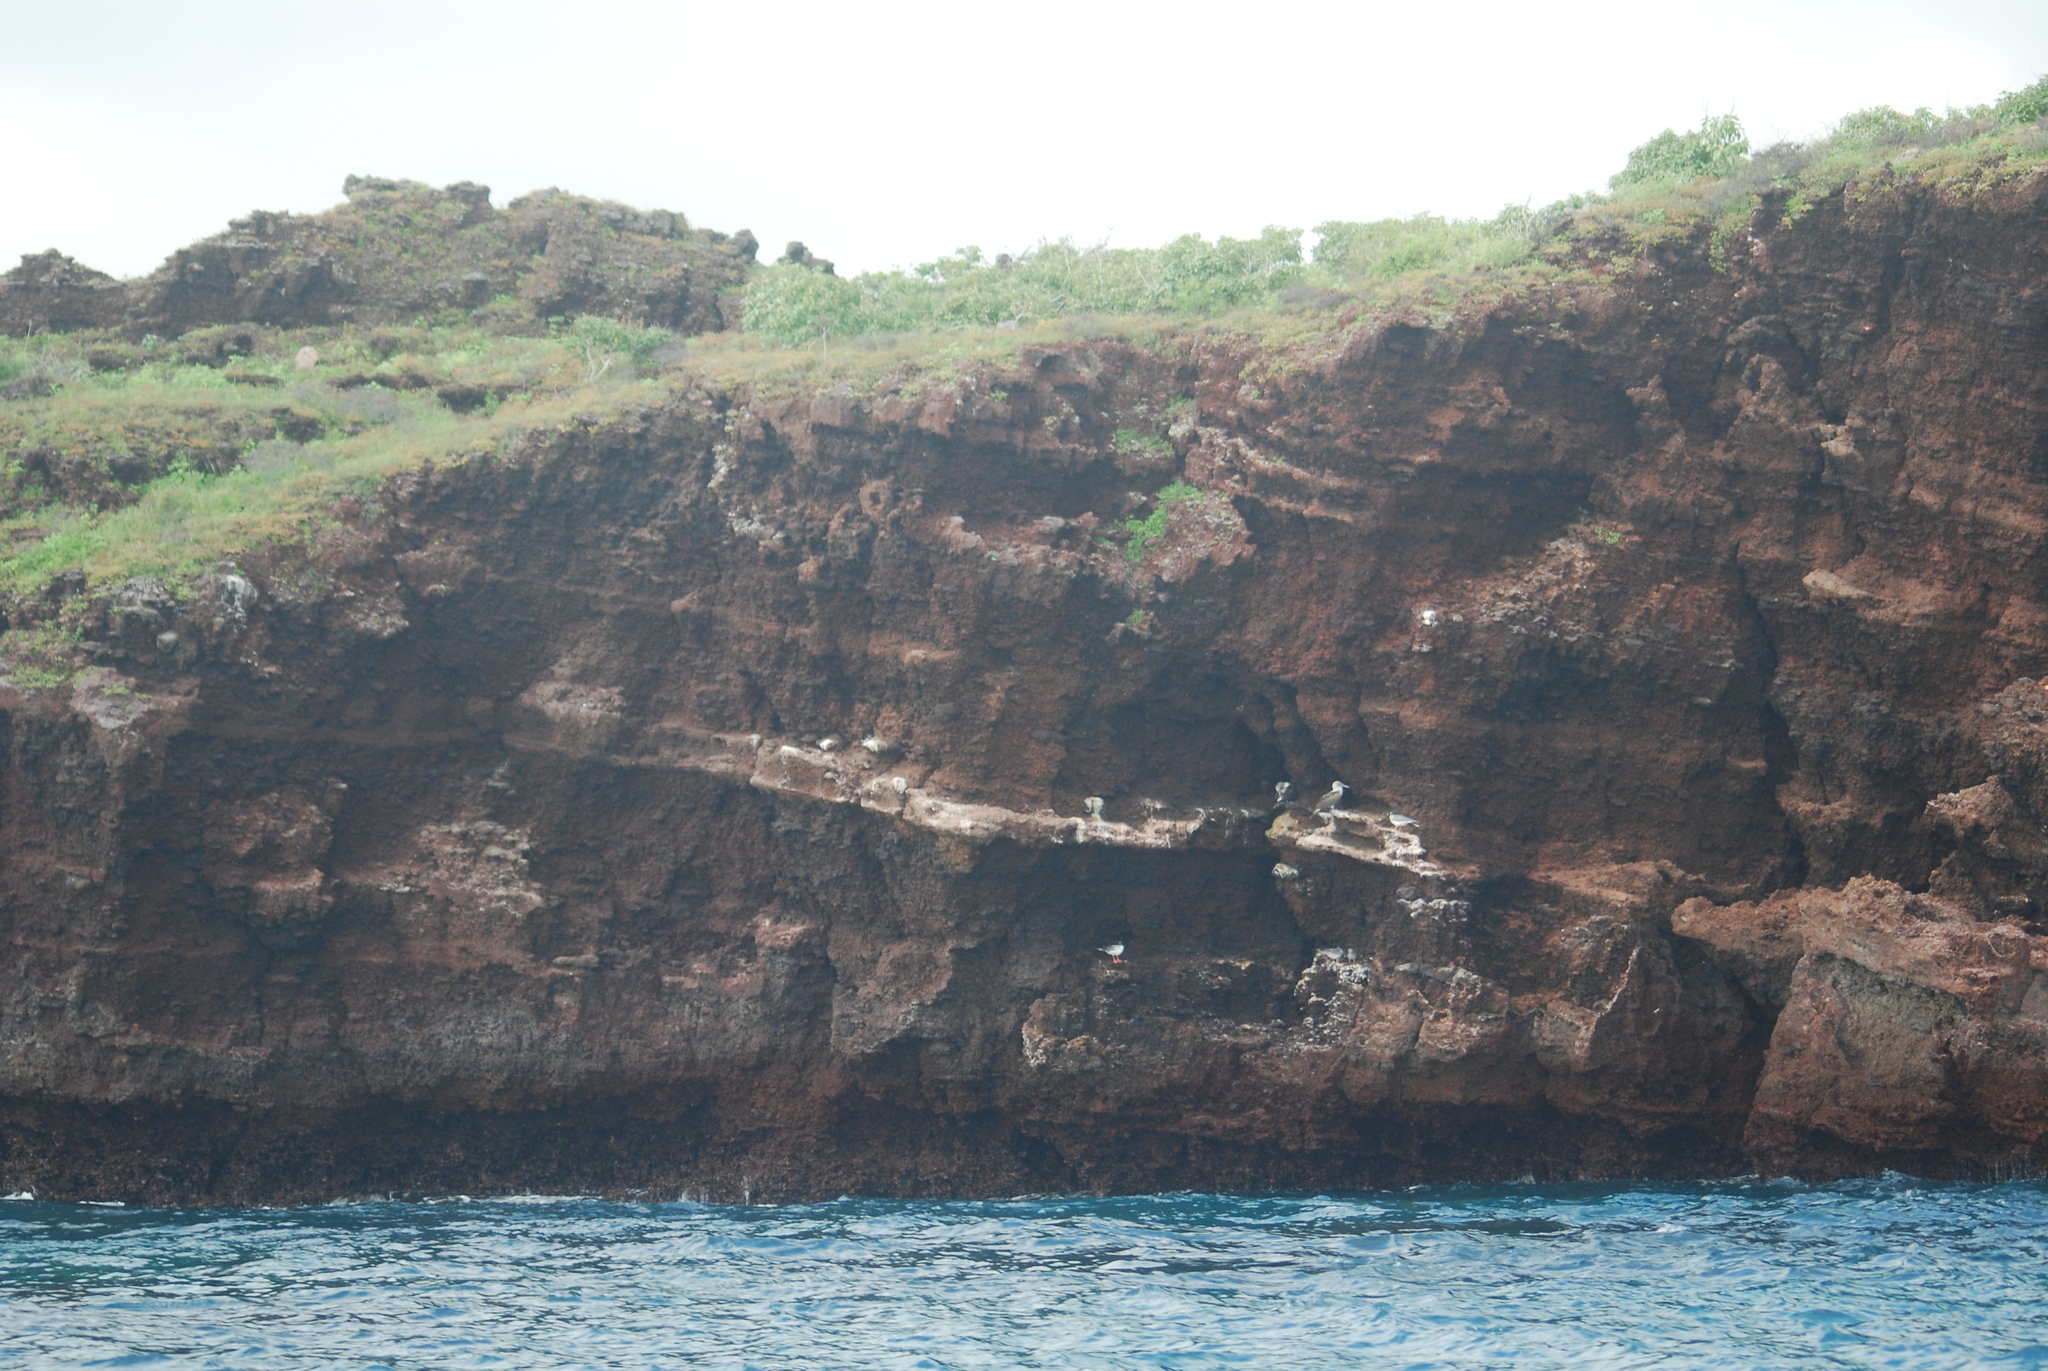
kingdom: Animalia
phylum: Chordata
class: Aves
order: Suliformes
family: Sulidae
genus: Sula
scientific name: Sula nebouxii
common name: Blue-footed booby
